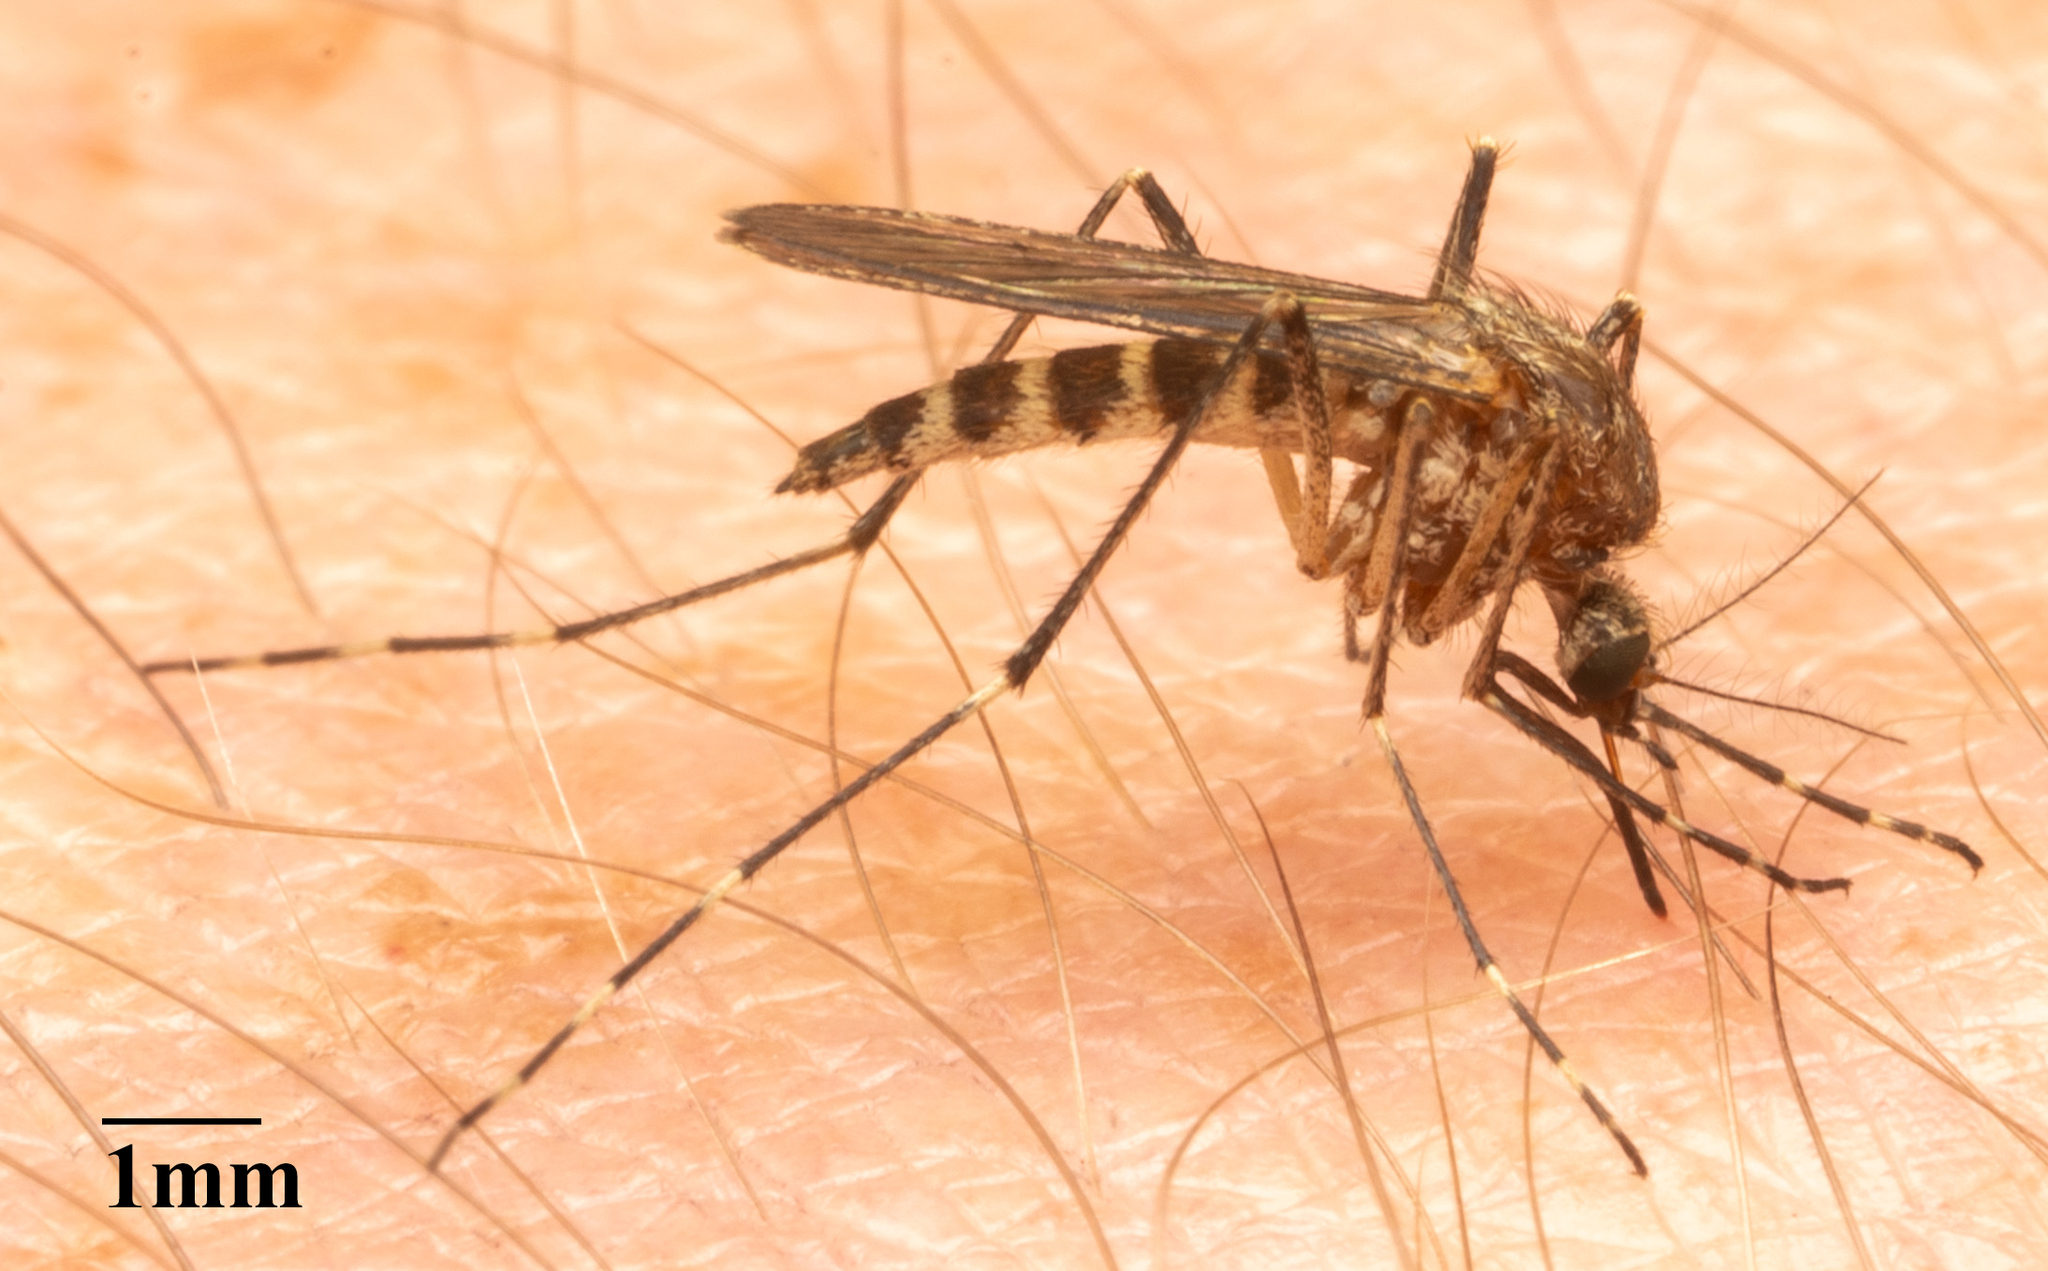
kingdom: Animalia
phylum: Arthropoda
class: Insecta
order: Diptera
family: Culicidae
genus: Aedes
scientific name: Aedes increpitus
